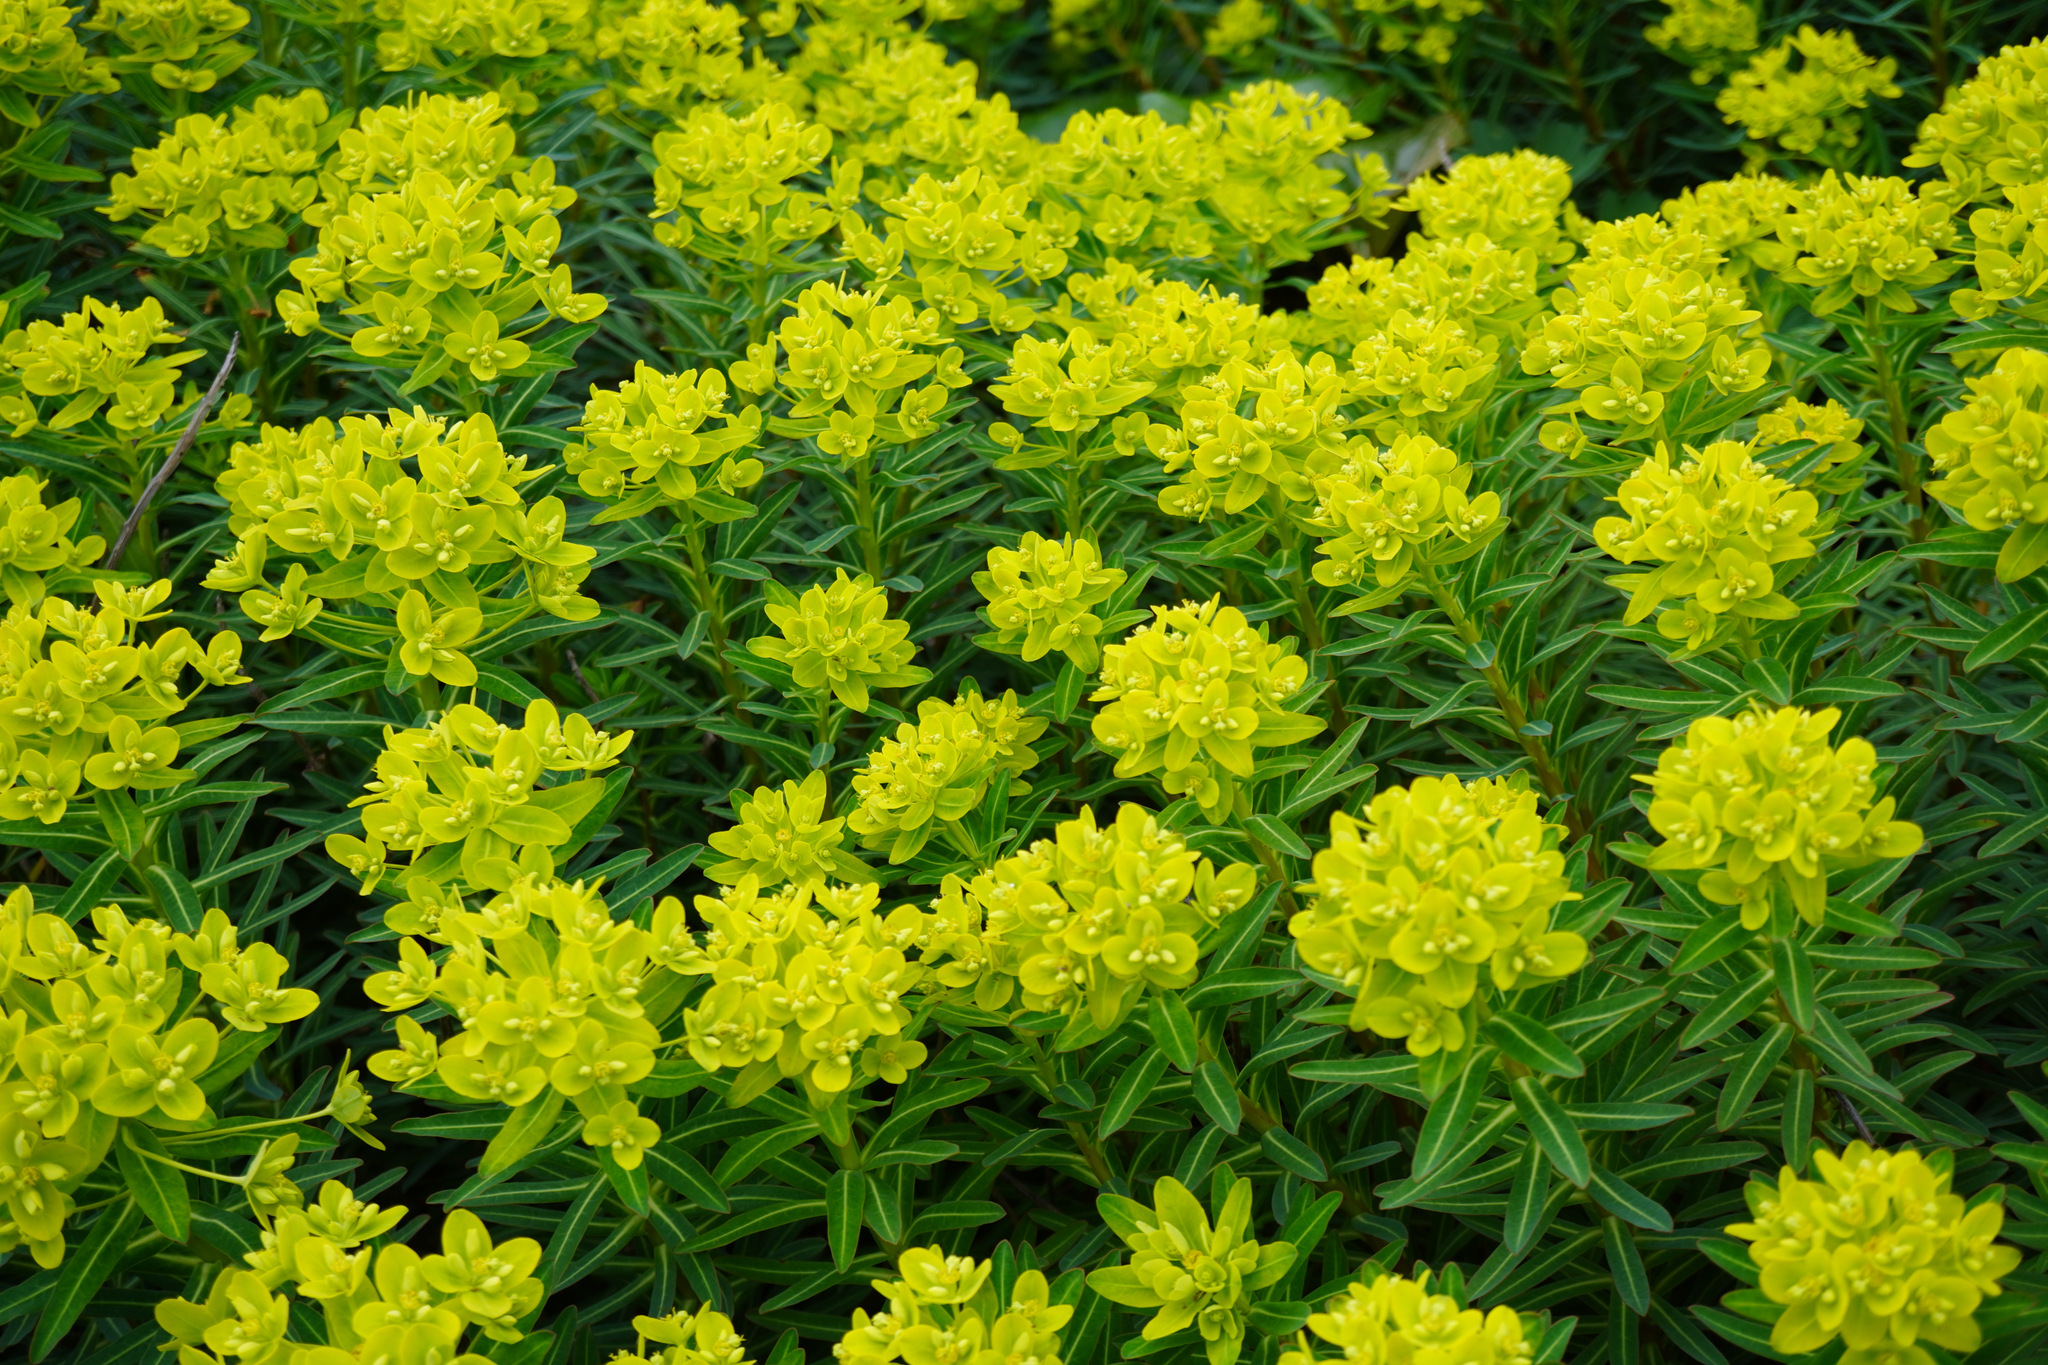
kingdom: Plantae
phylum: Tracheophyta
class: Magnoliopsida
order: Malpighiales
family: Euphorbiaceae
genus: Euphorbia
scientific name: Euphorbia jolkinii
